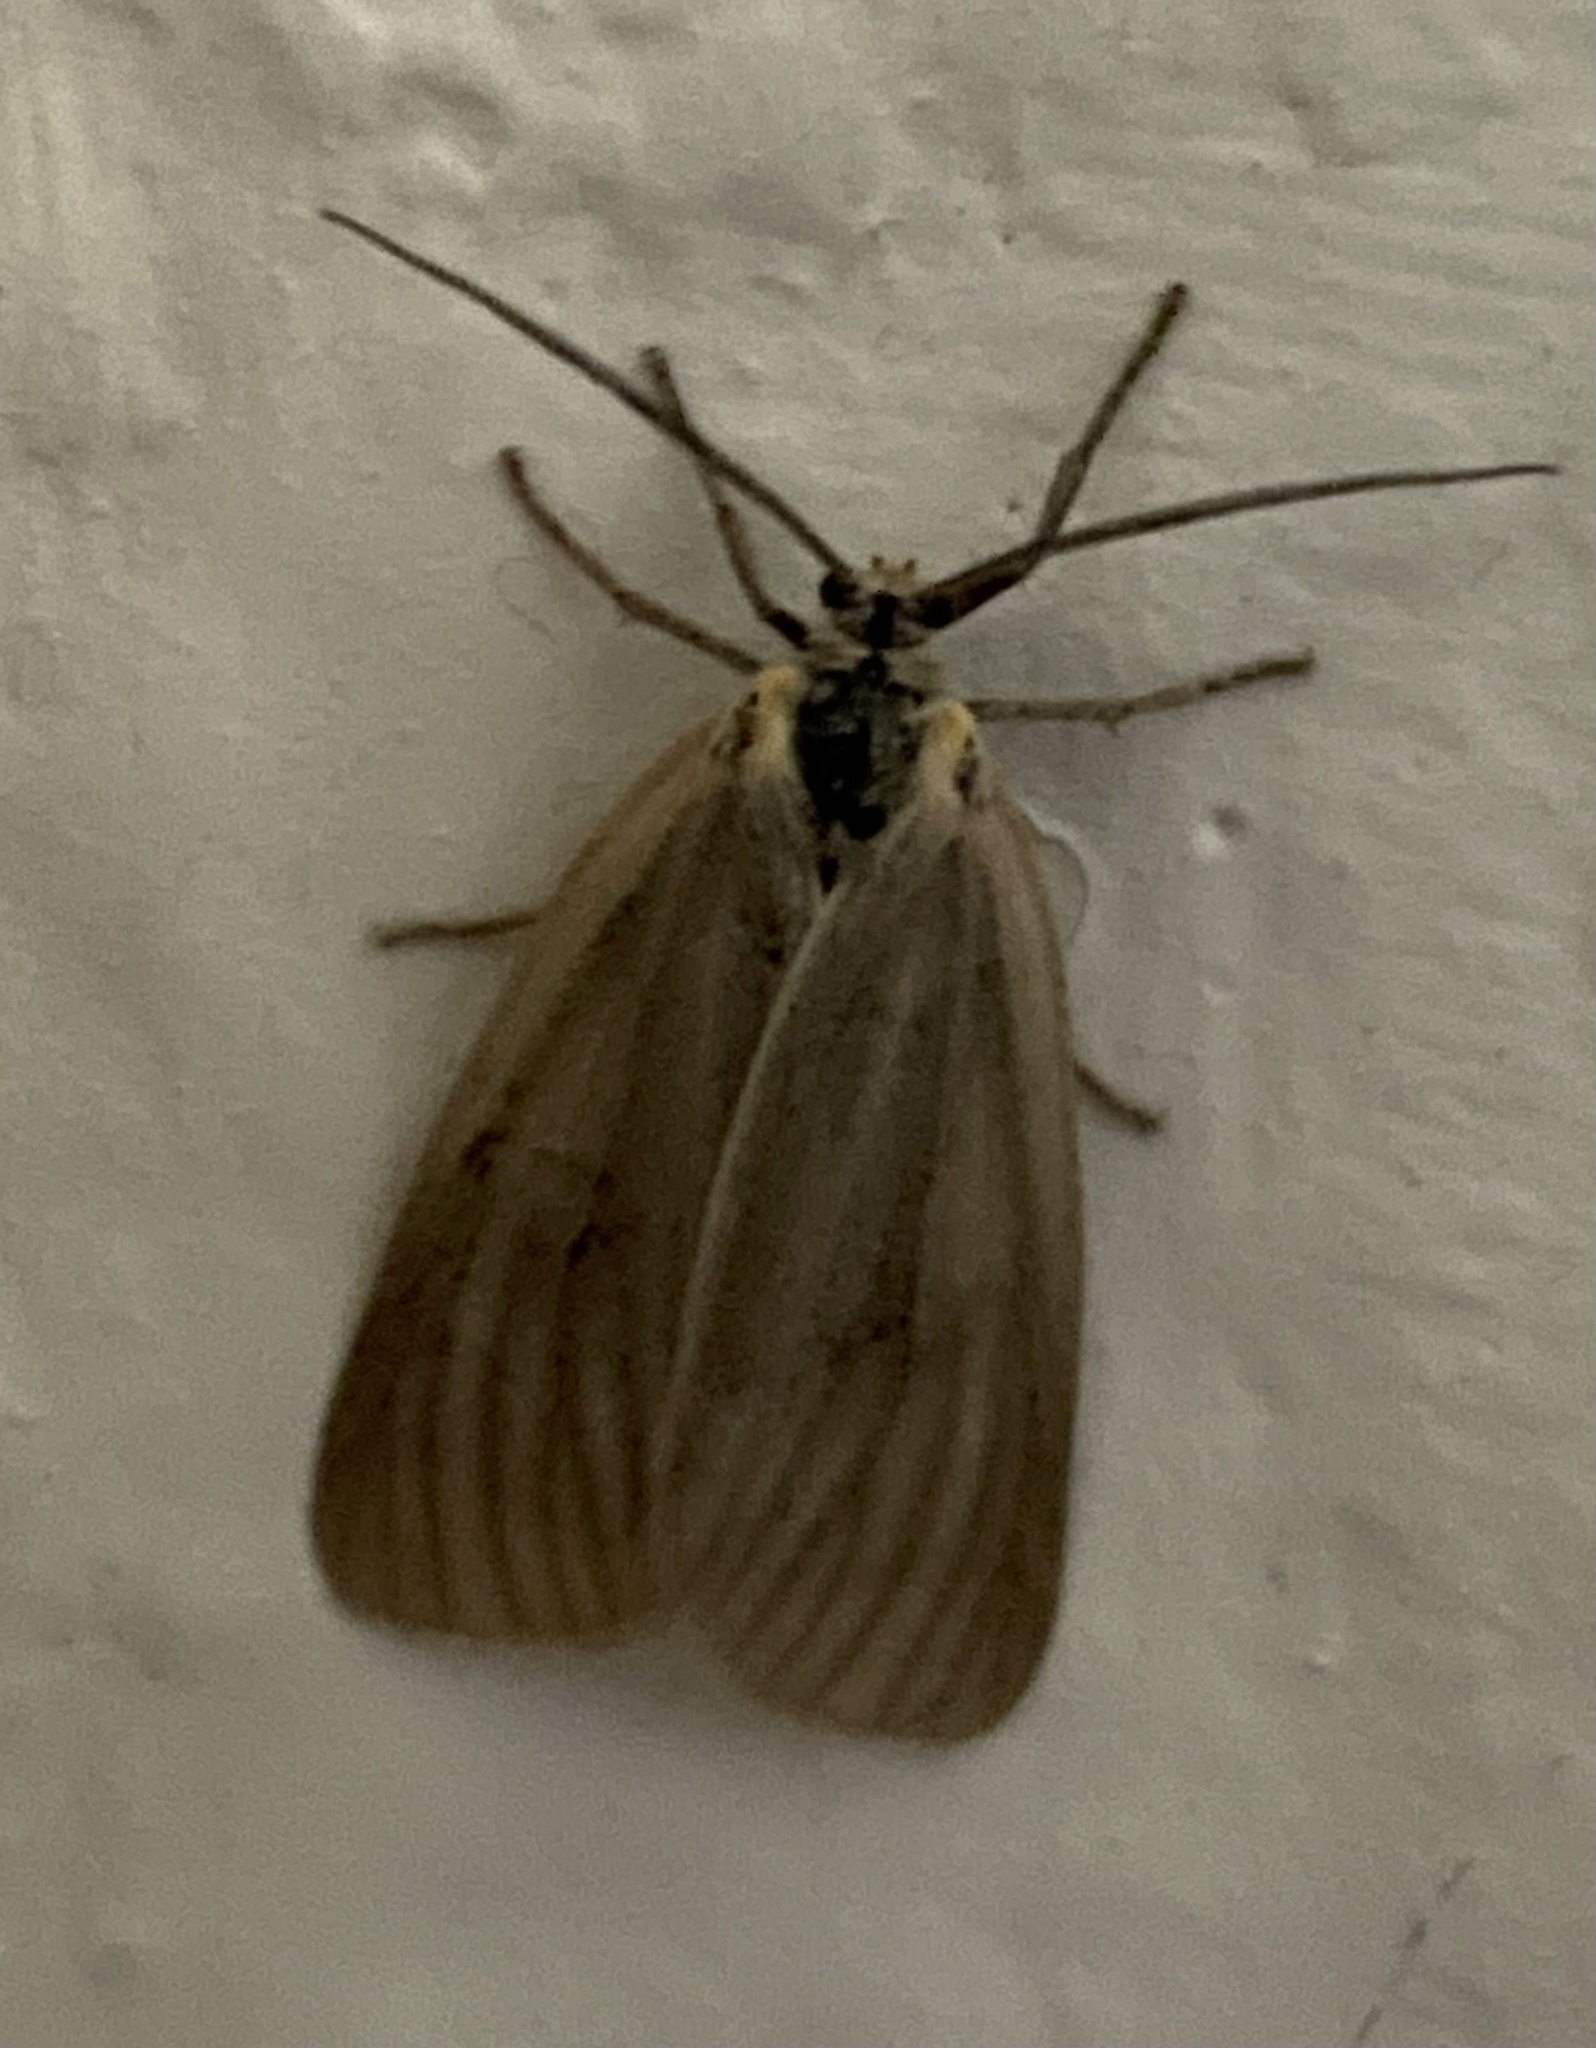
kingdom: Animalia
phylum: Arthropoda
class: Insecta
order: Lepidoptera
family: Notodontidae
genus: Phryganidia
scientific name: Phryganidia californica
